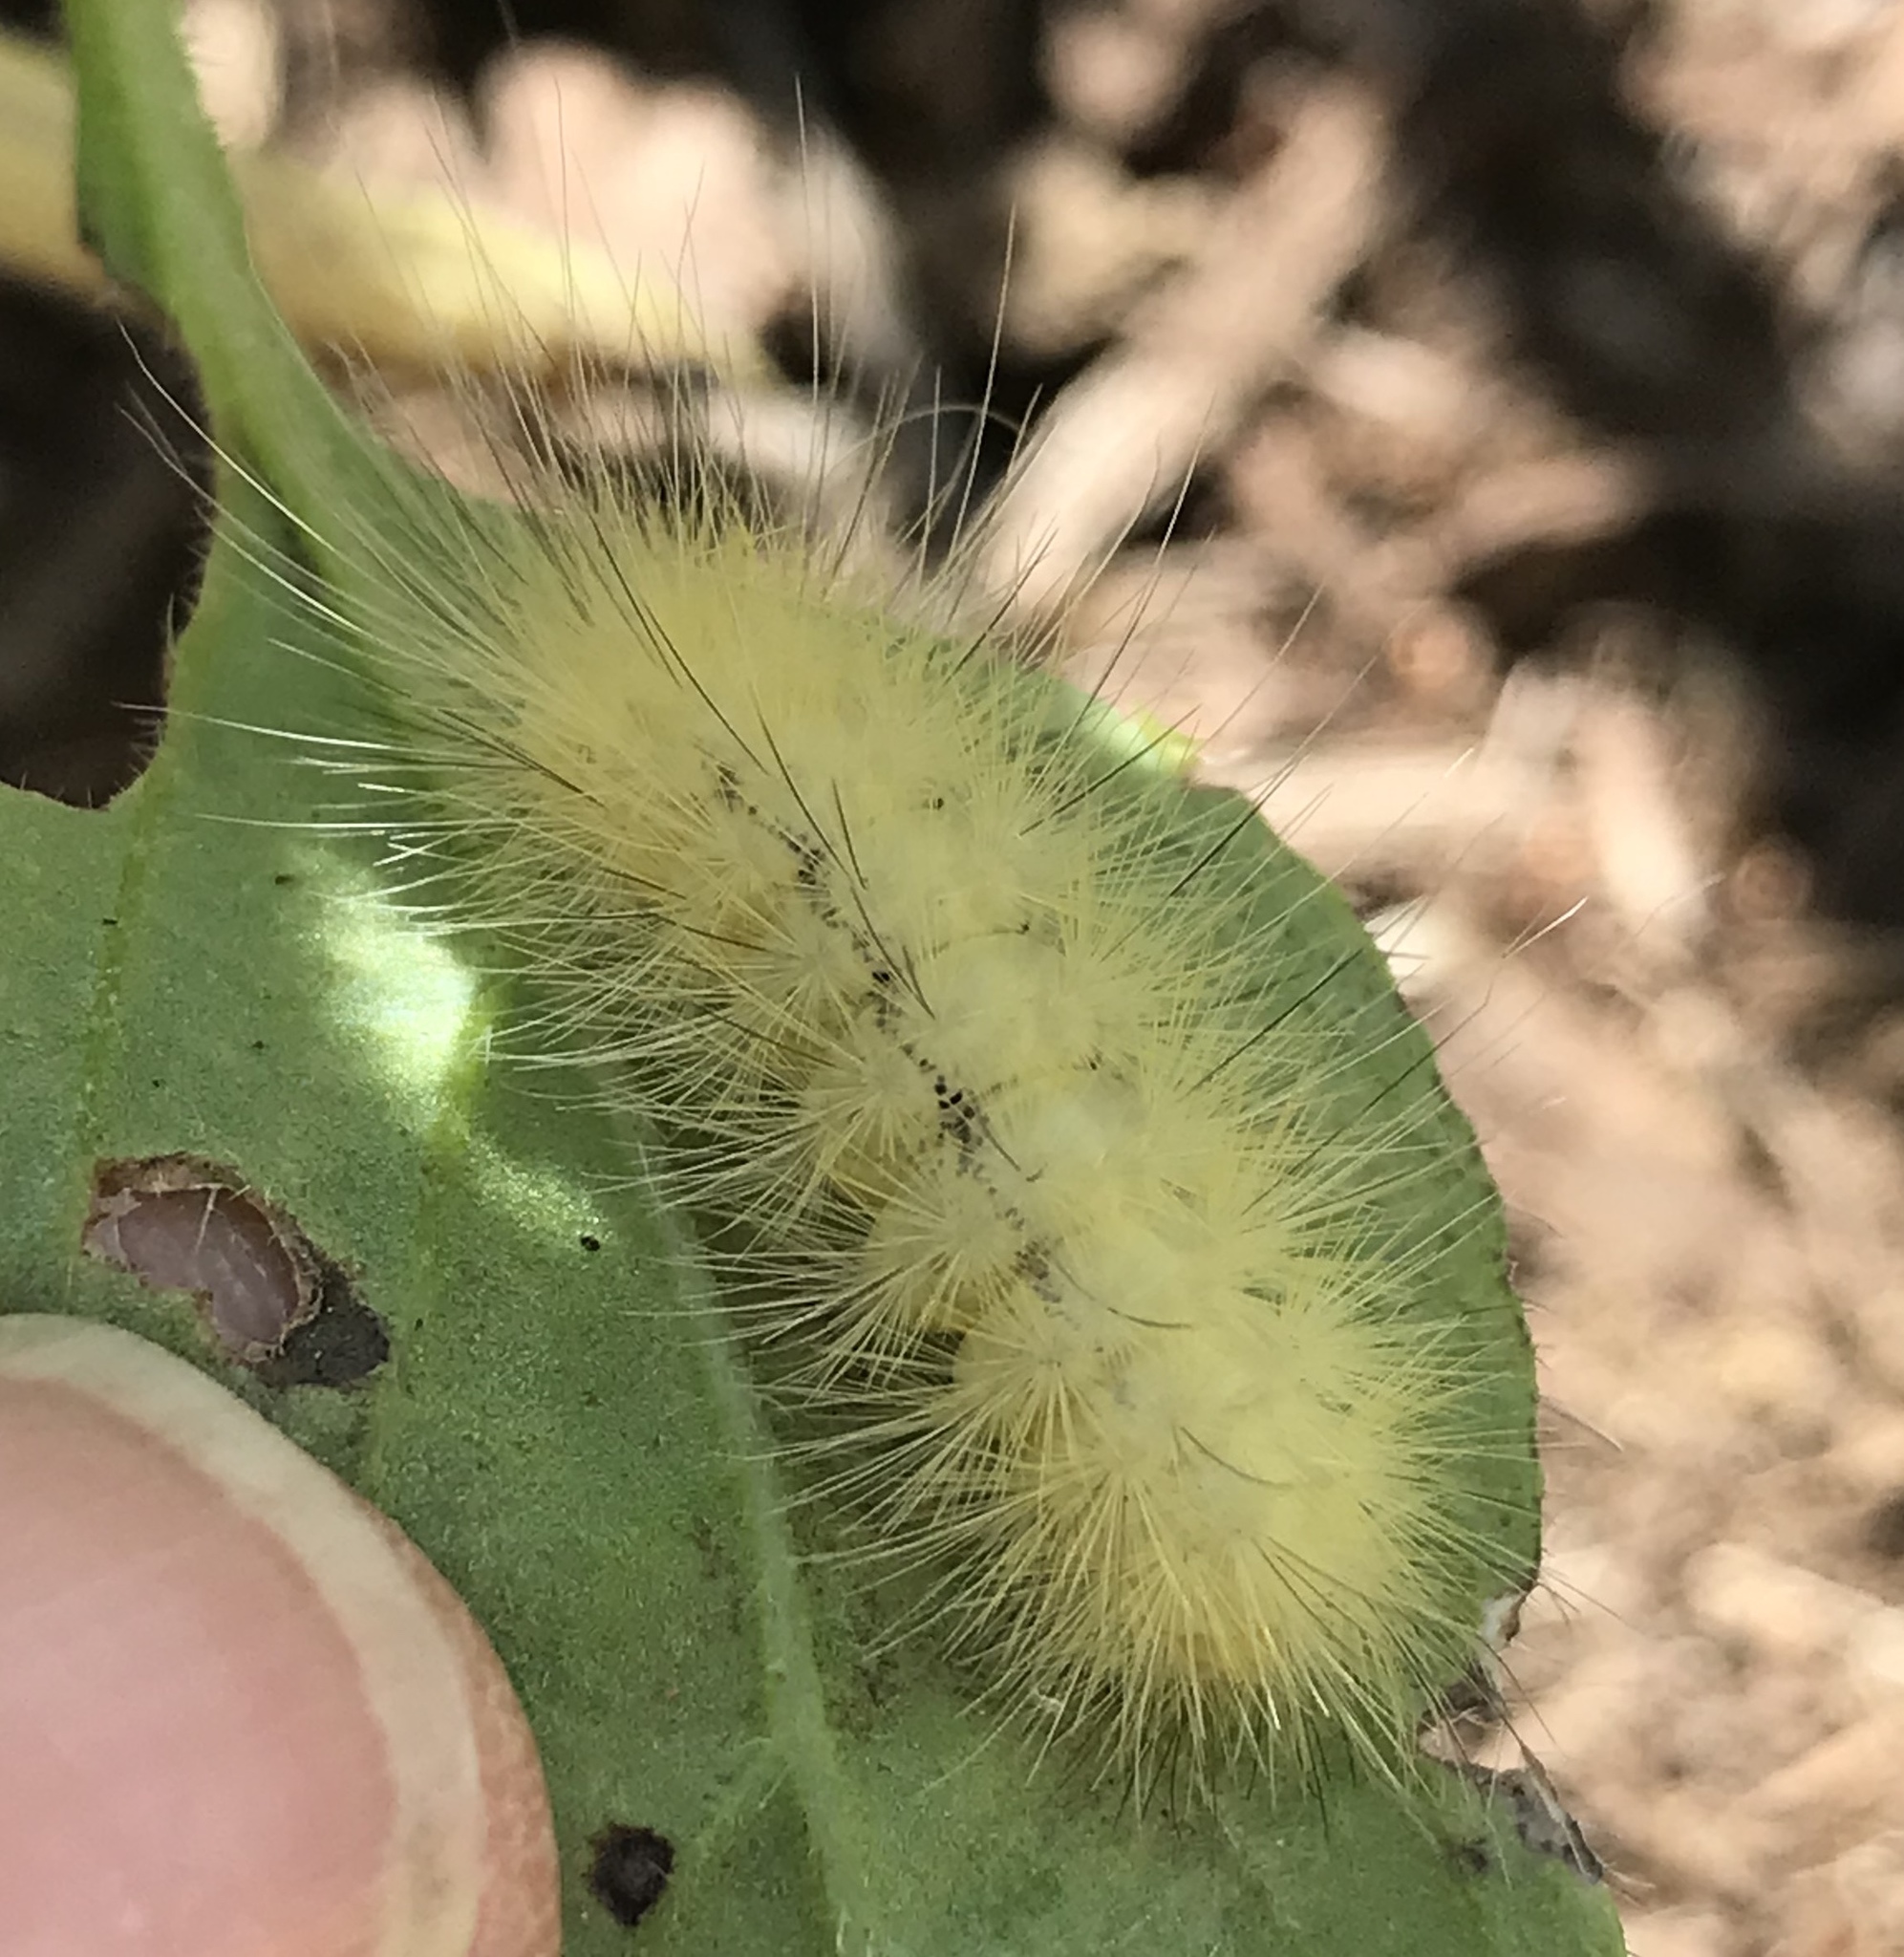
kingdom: Animalia
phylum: Arthropoda
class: Insecta
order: Lepidoptera
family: Erebidae
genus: Spilosoma
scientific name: Spilosoma virginica
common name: Virginia tiger moth
